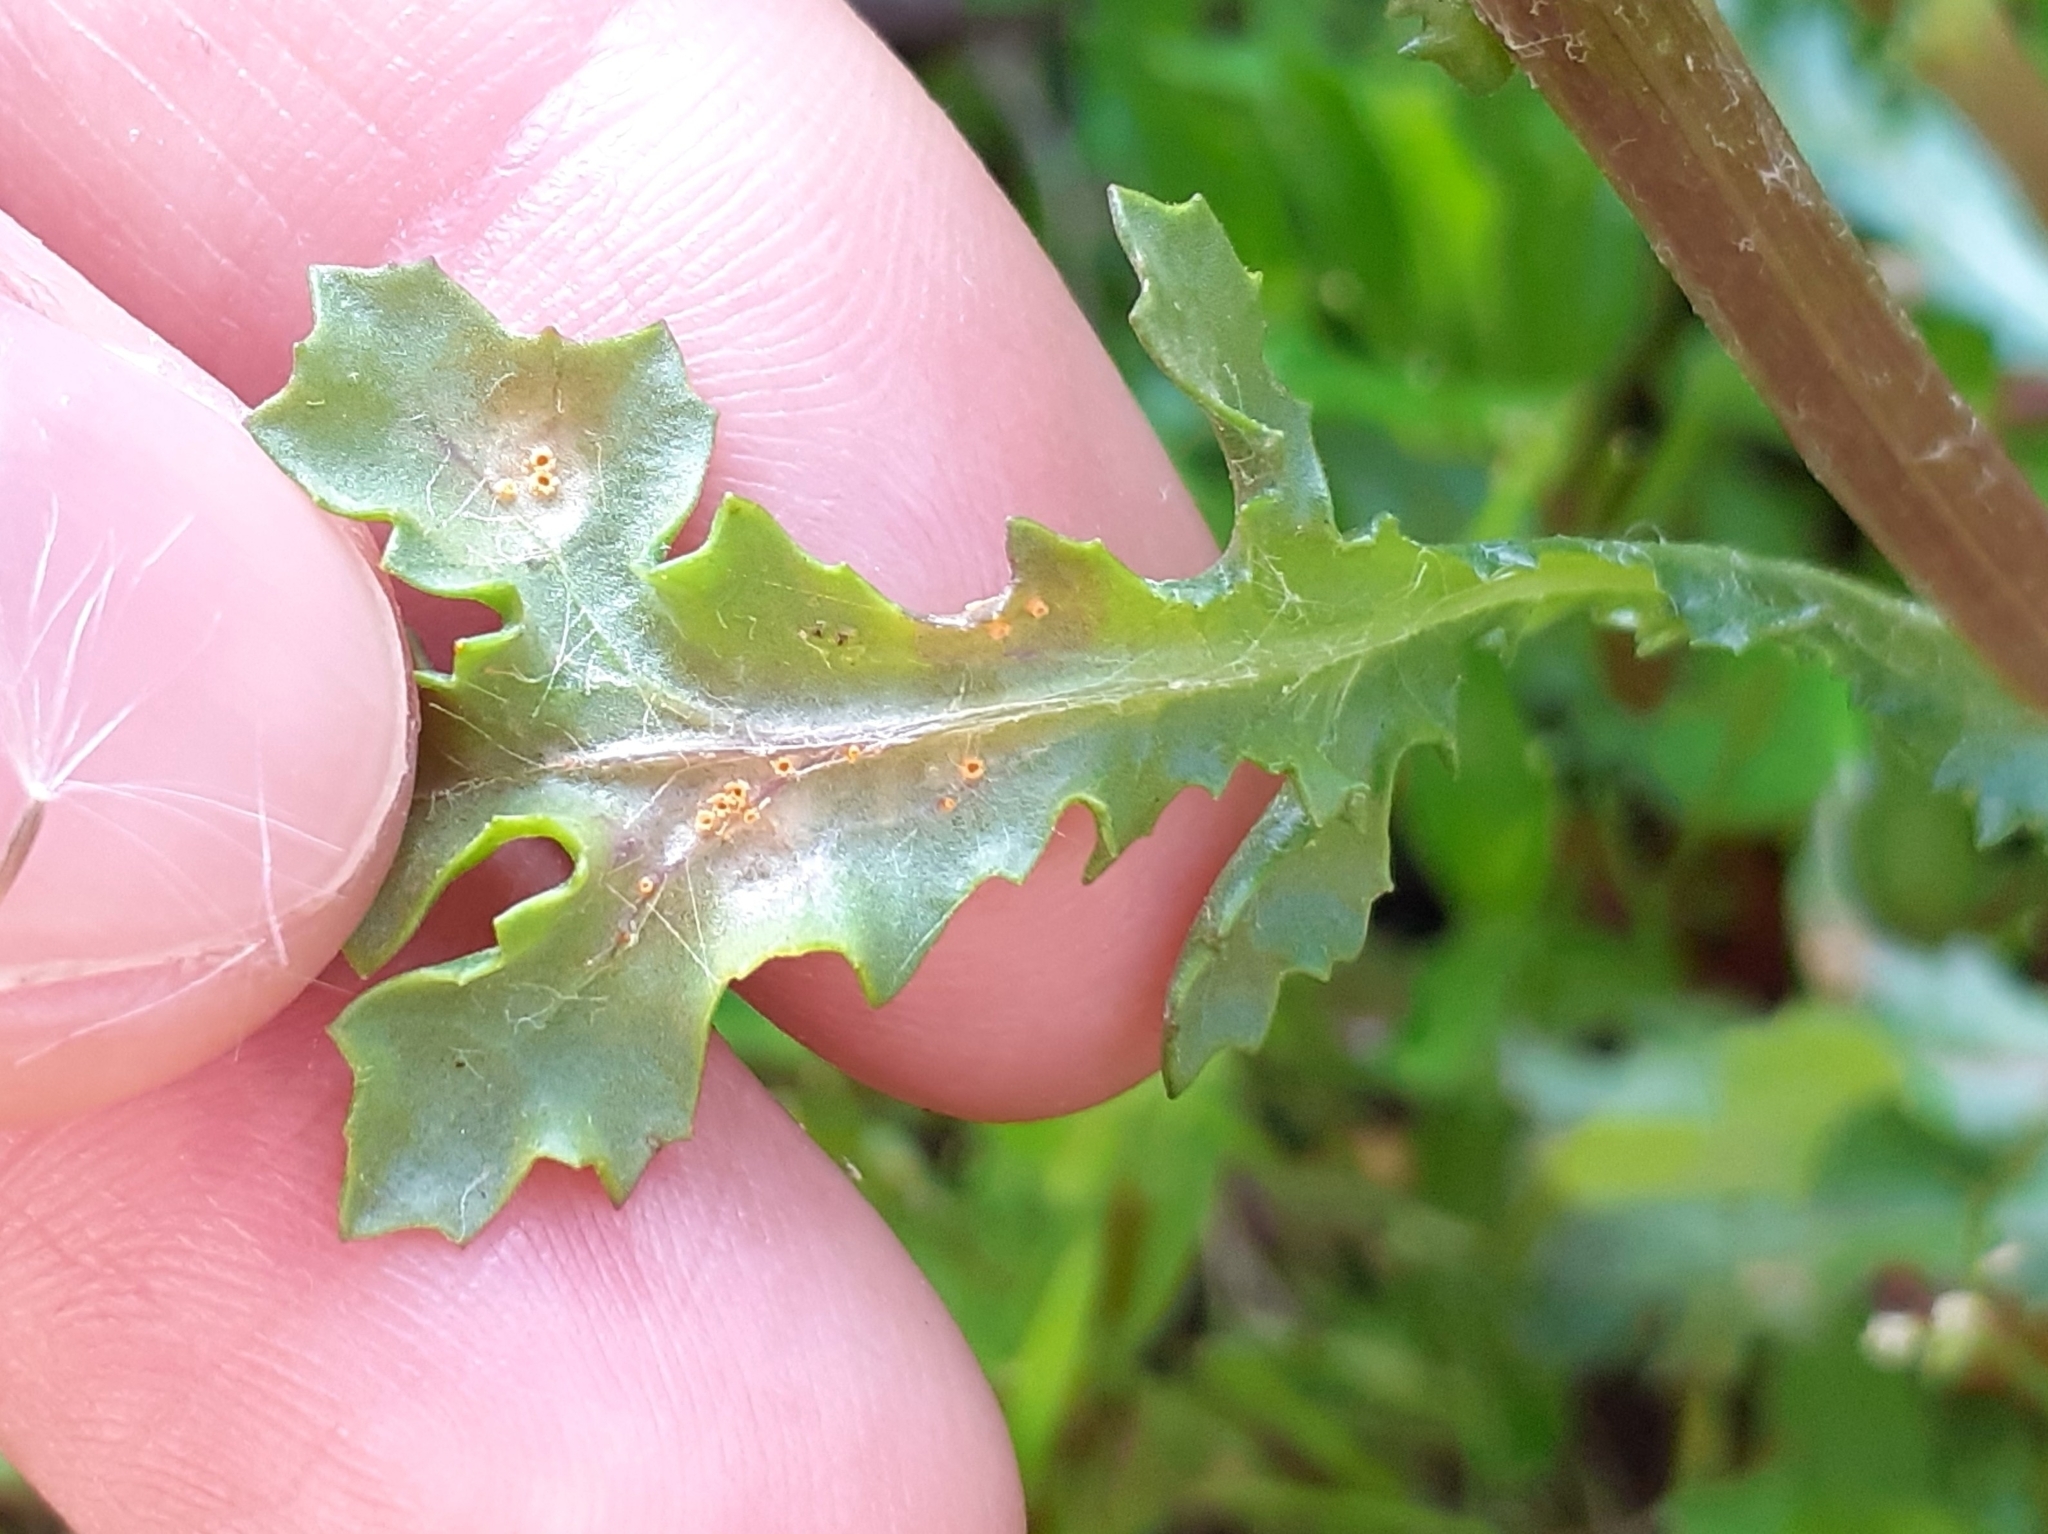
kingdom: Fungi
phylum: Basidiomycota
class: Pucciniomycetes
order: Pucciniales
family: Pucciniaceae
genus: Puccinia
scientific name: Puccinia lagenophorae
